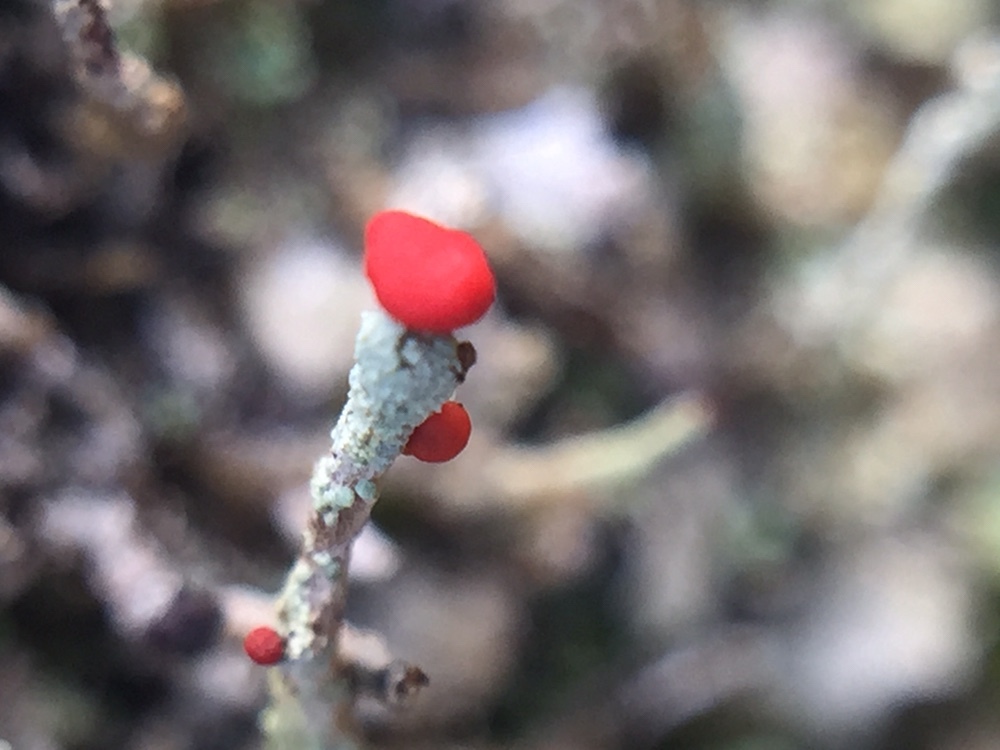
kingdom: Fungi
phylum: Ascomycota
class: Lecanoromycetes
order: Lecanorales
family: Cladoniaceae
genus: Cladonia
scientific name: Cladonia floerkeana
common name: Gritty british soldiers lichen
